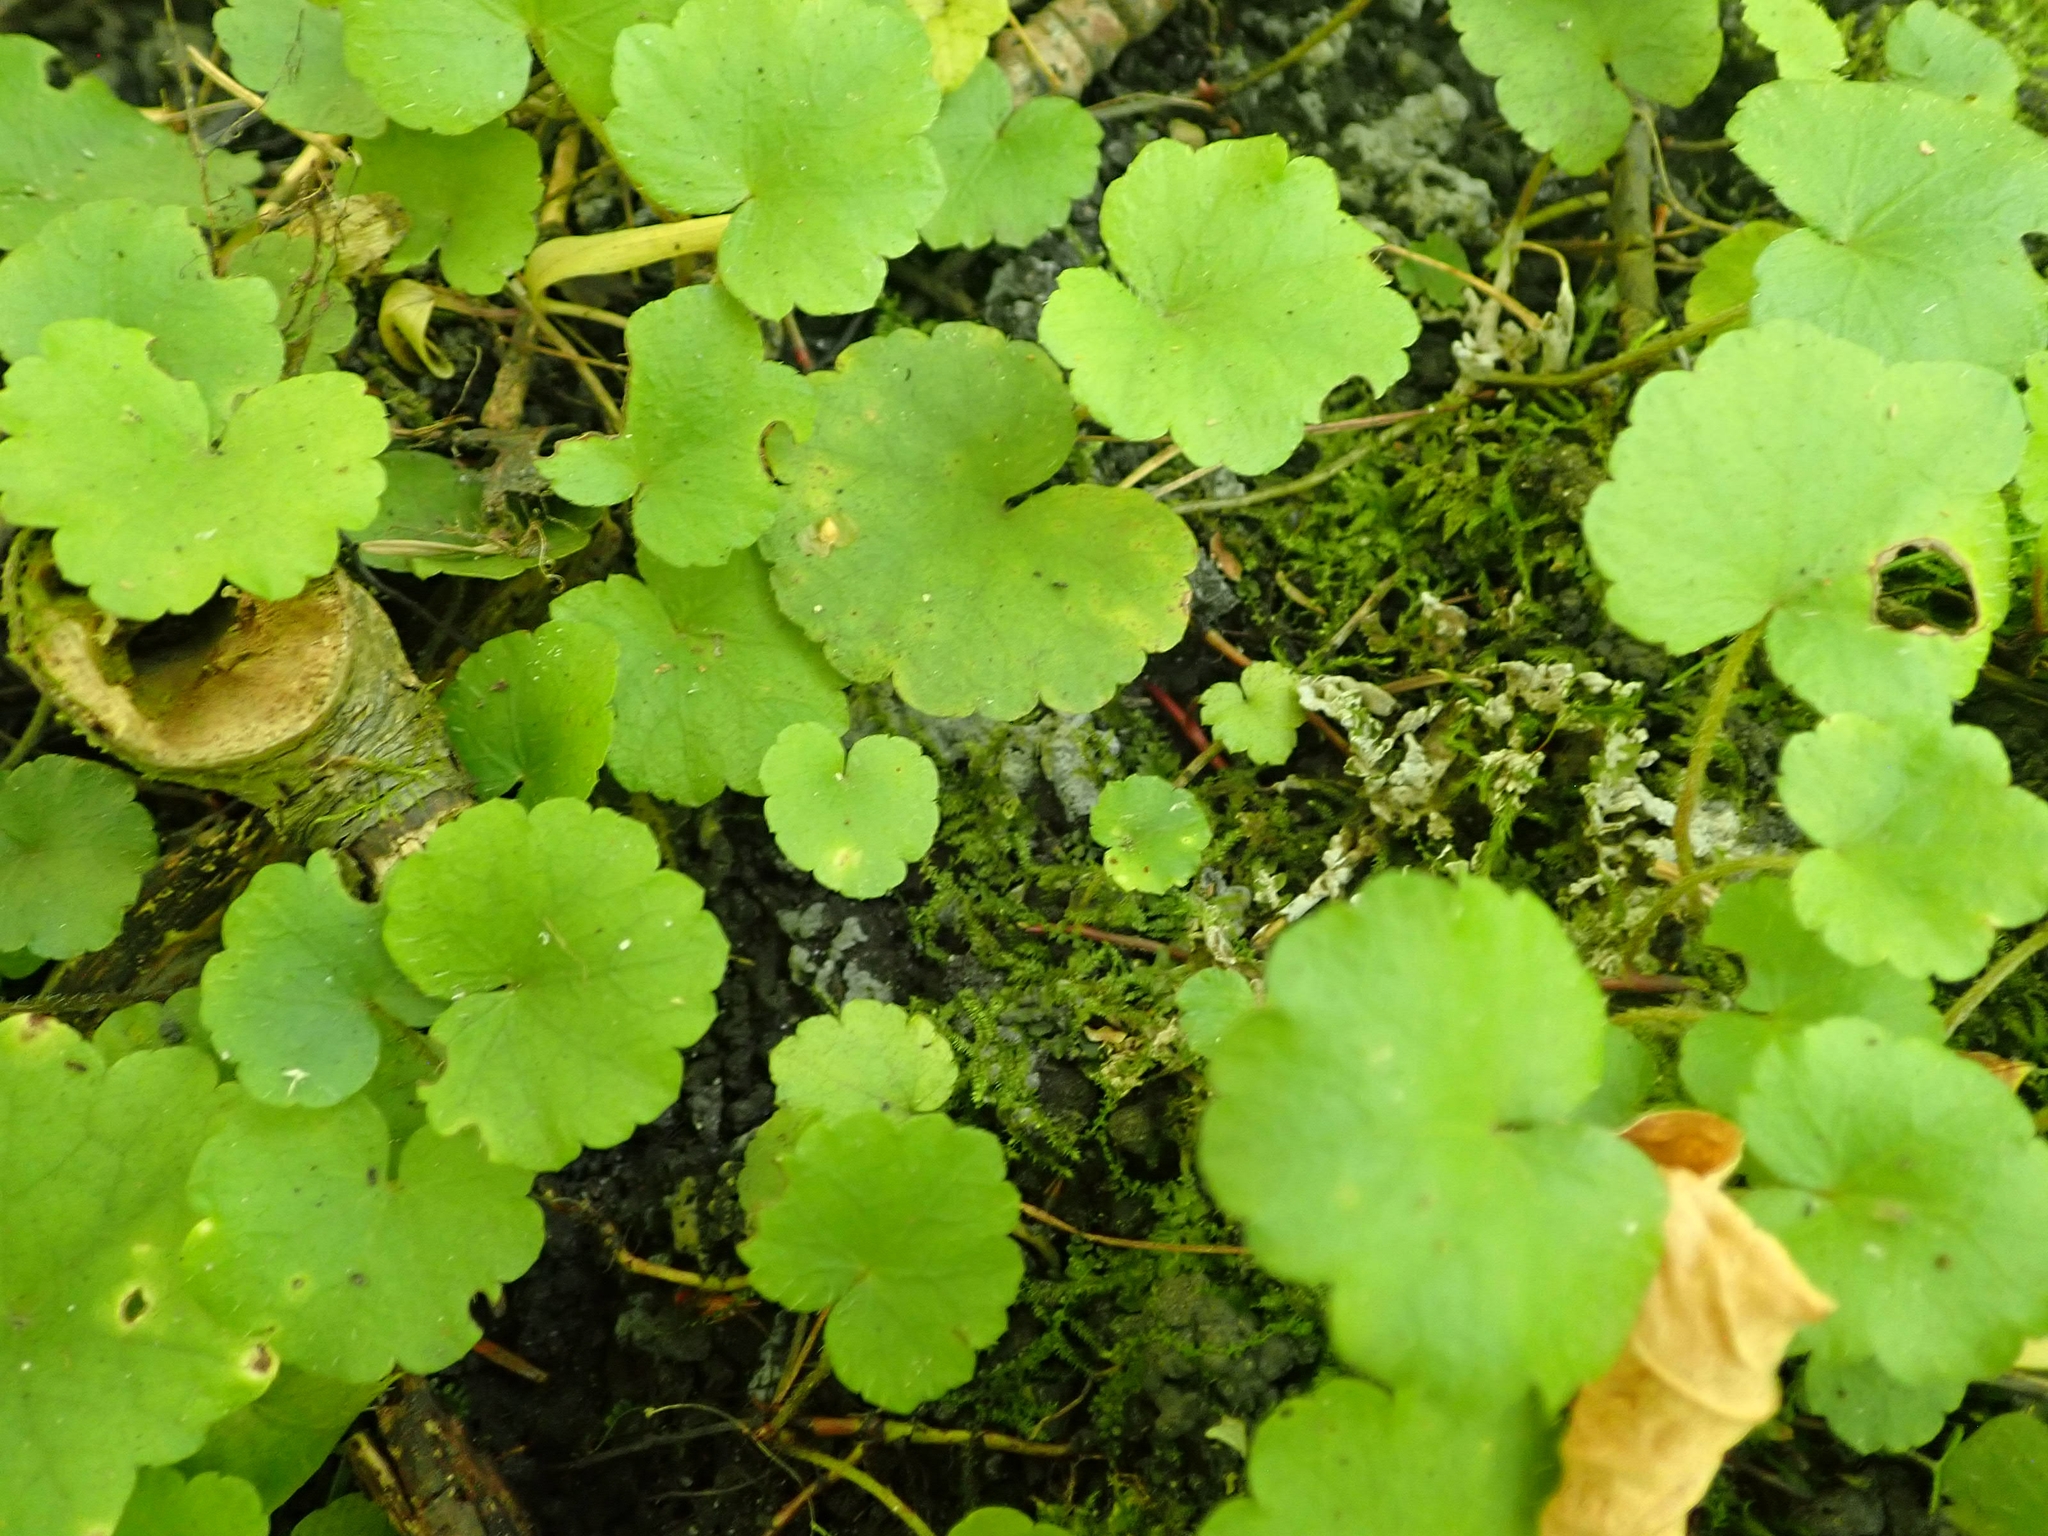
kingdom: Plantae
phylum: Tracheophyta
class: Magnoliopsida
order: Saxifragales
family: Saxifragaceae
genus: Mitella
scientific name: Mitella nuda
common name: Bare-stemmed bishop's-cap
